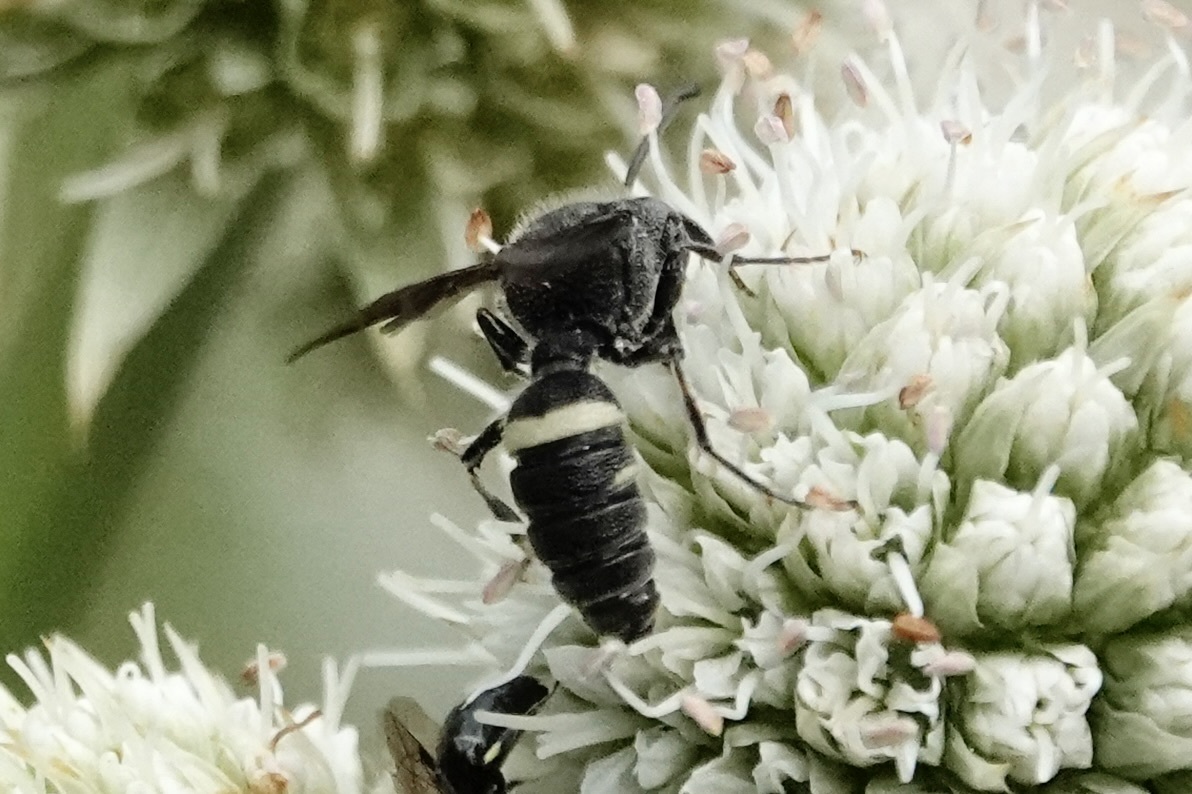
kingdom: Animalia
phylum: Arthropoda
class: Insecta
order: Hymenoptera
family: Crabronidae
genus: Cerceris
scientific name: Cerceris fumipennis
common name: Smokey-winged beetle bandit wasp
